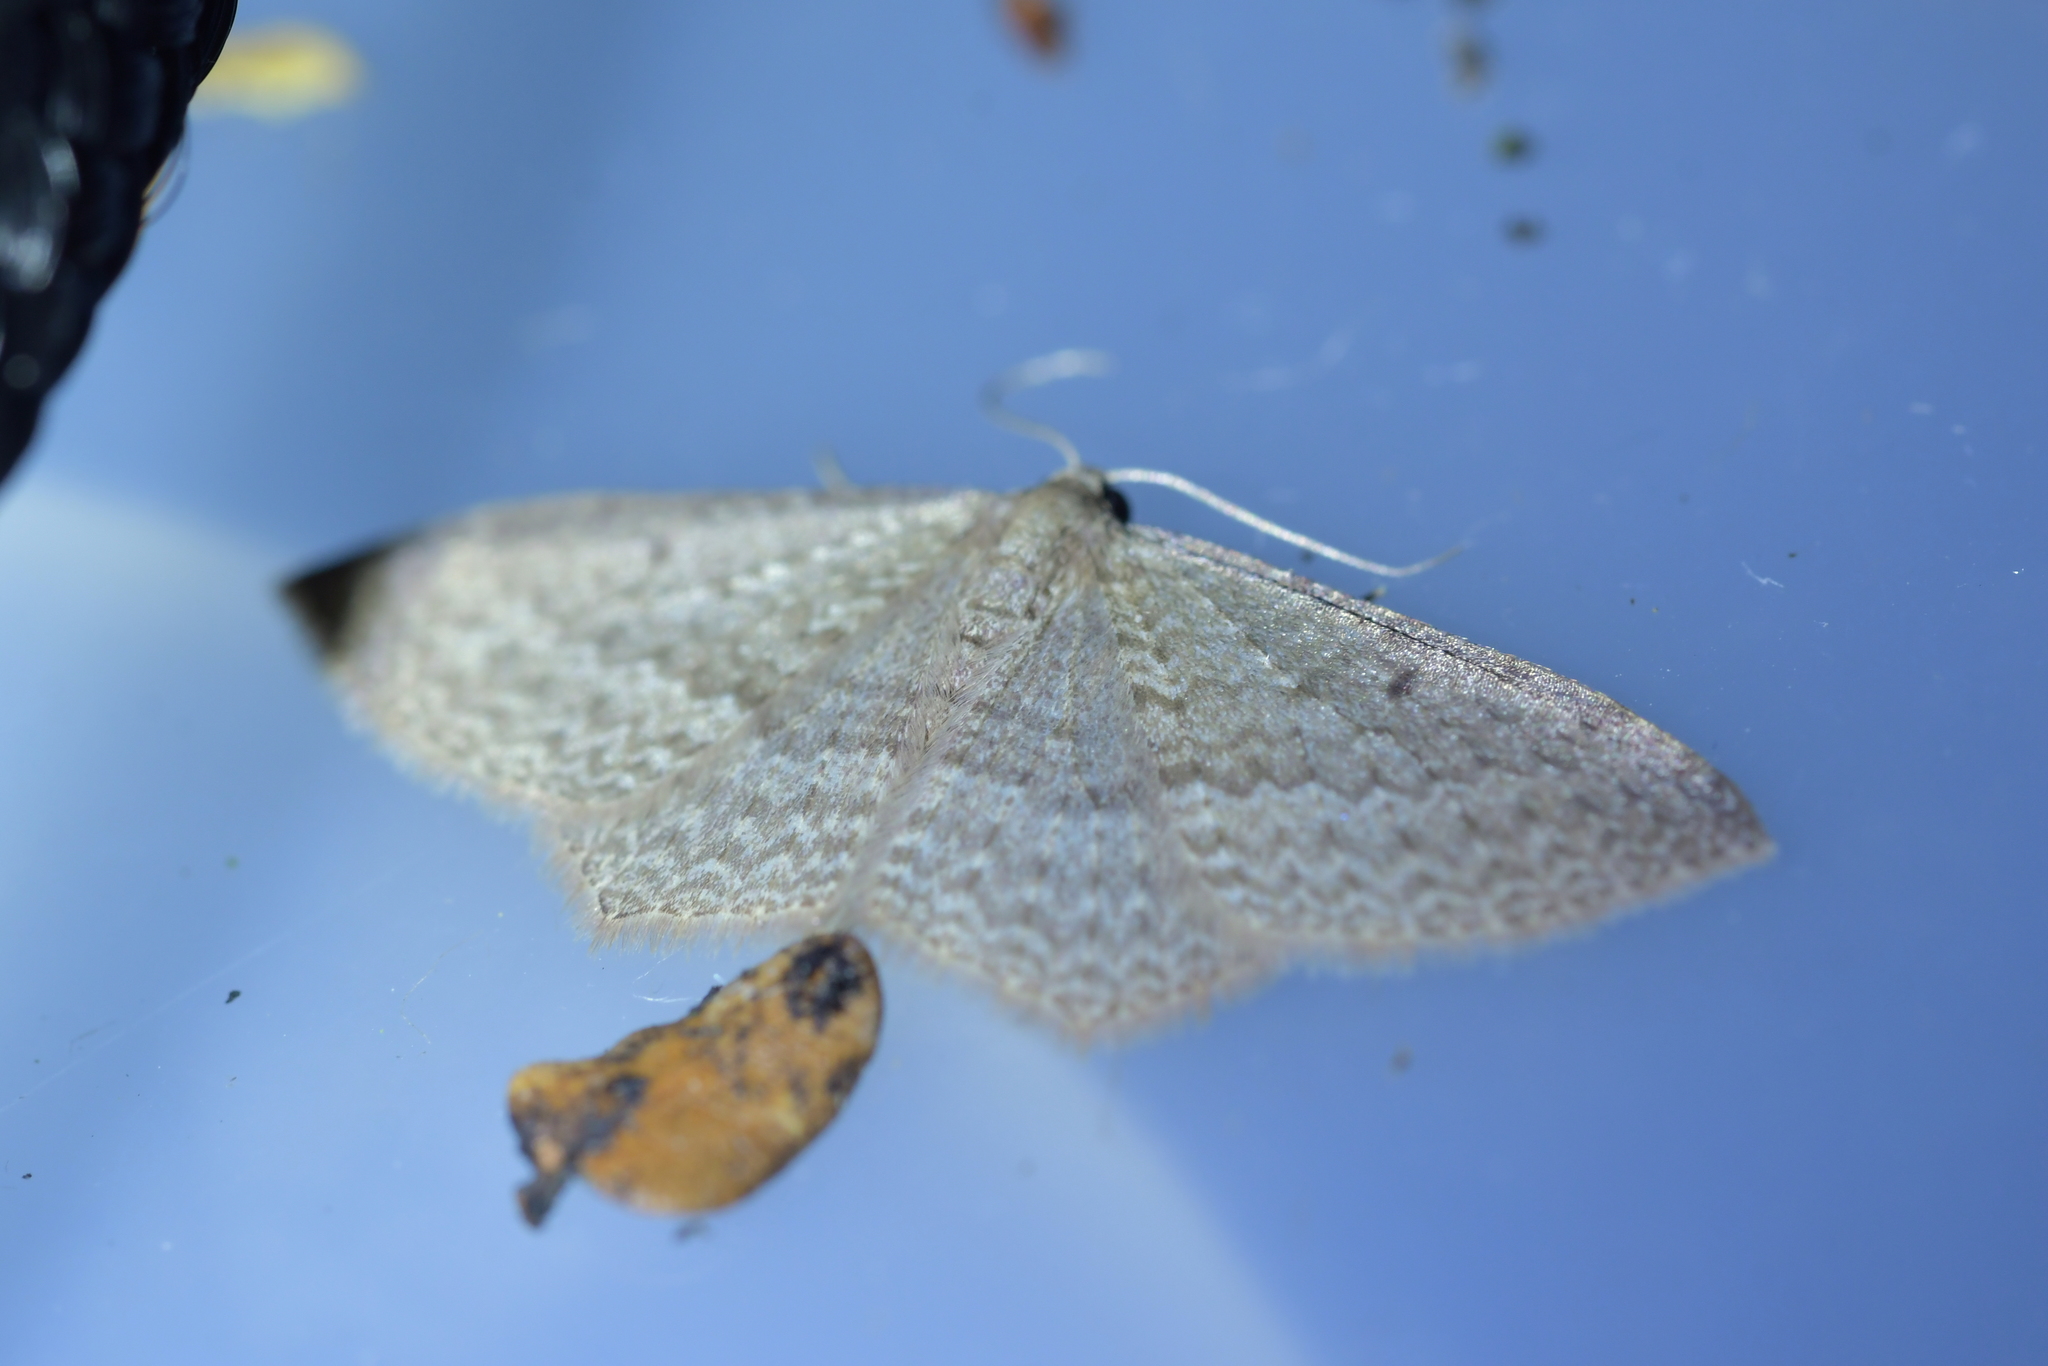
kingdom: Animalia
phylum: Arthropoda
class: Insecta
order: Lepidoptera
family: Geometridae
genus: Poecilasthena
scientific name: Poecilasthena schistaria
